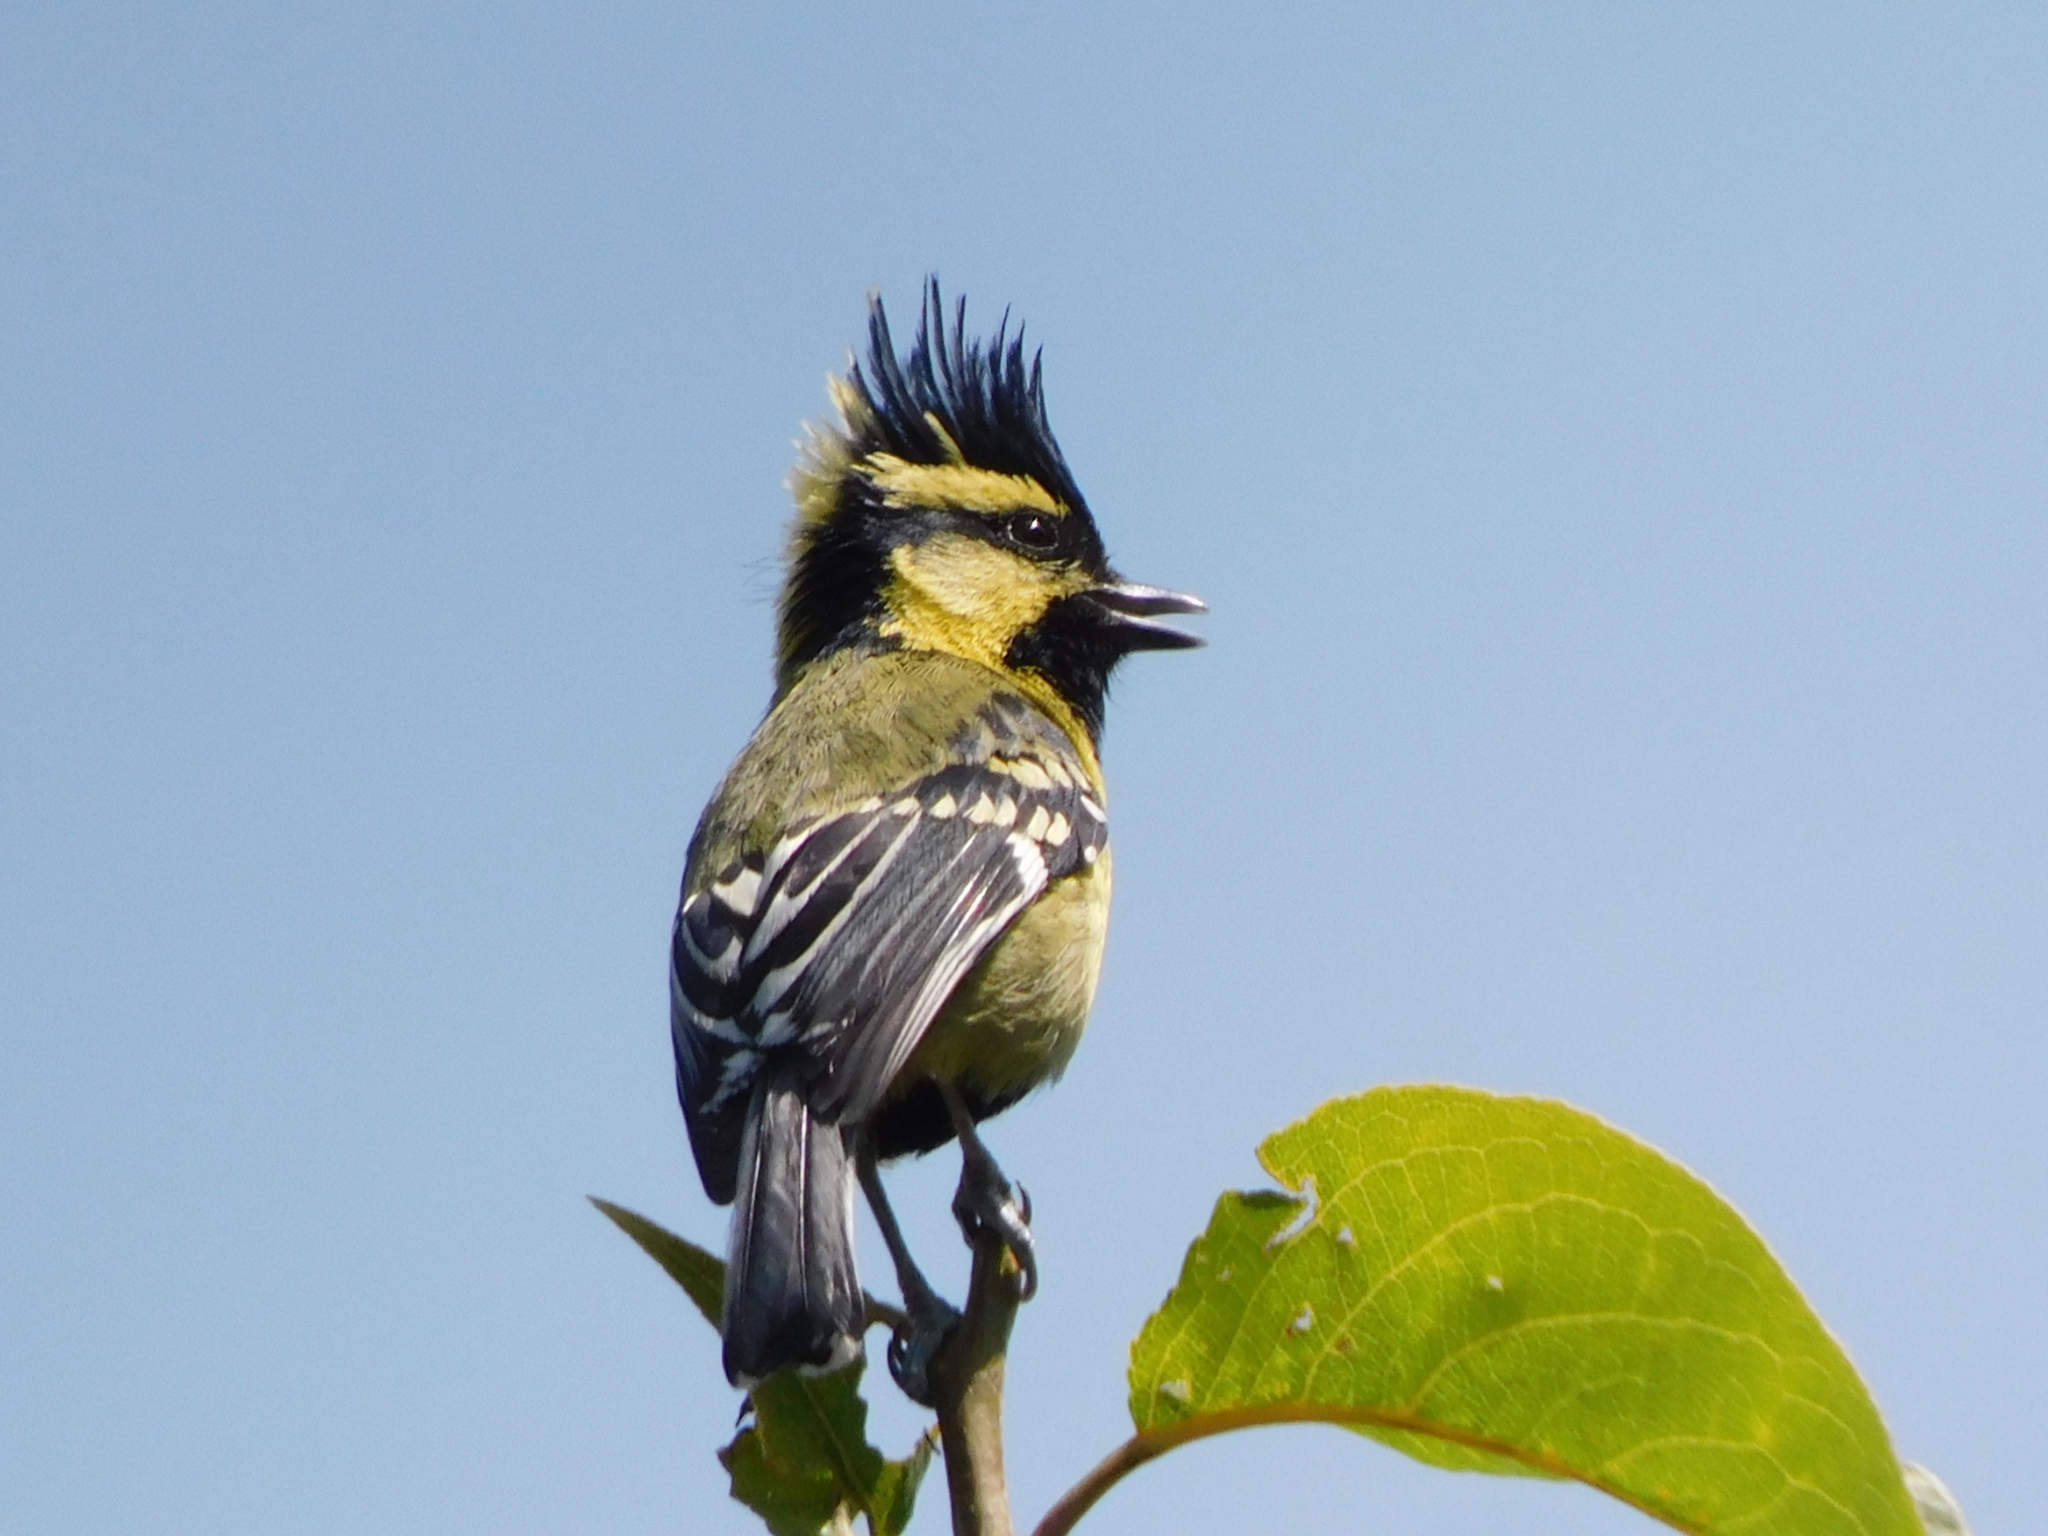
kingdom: Animalia
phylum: Chordata
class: Aves
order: Passeriformes
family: Paridae
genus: Parus
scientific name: Parus xanthogenys
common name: Black-lored tit
